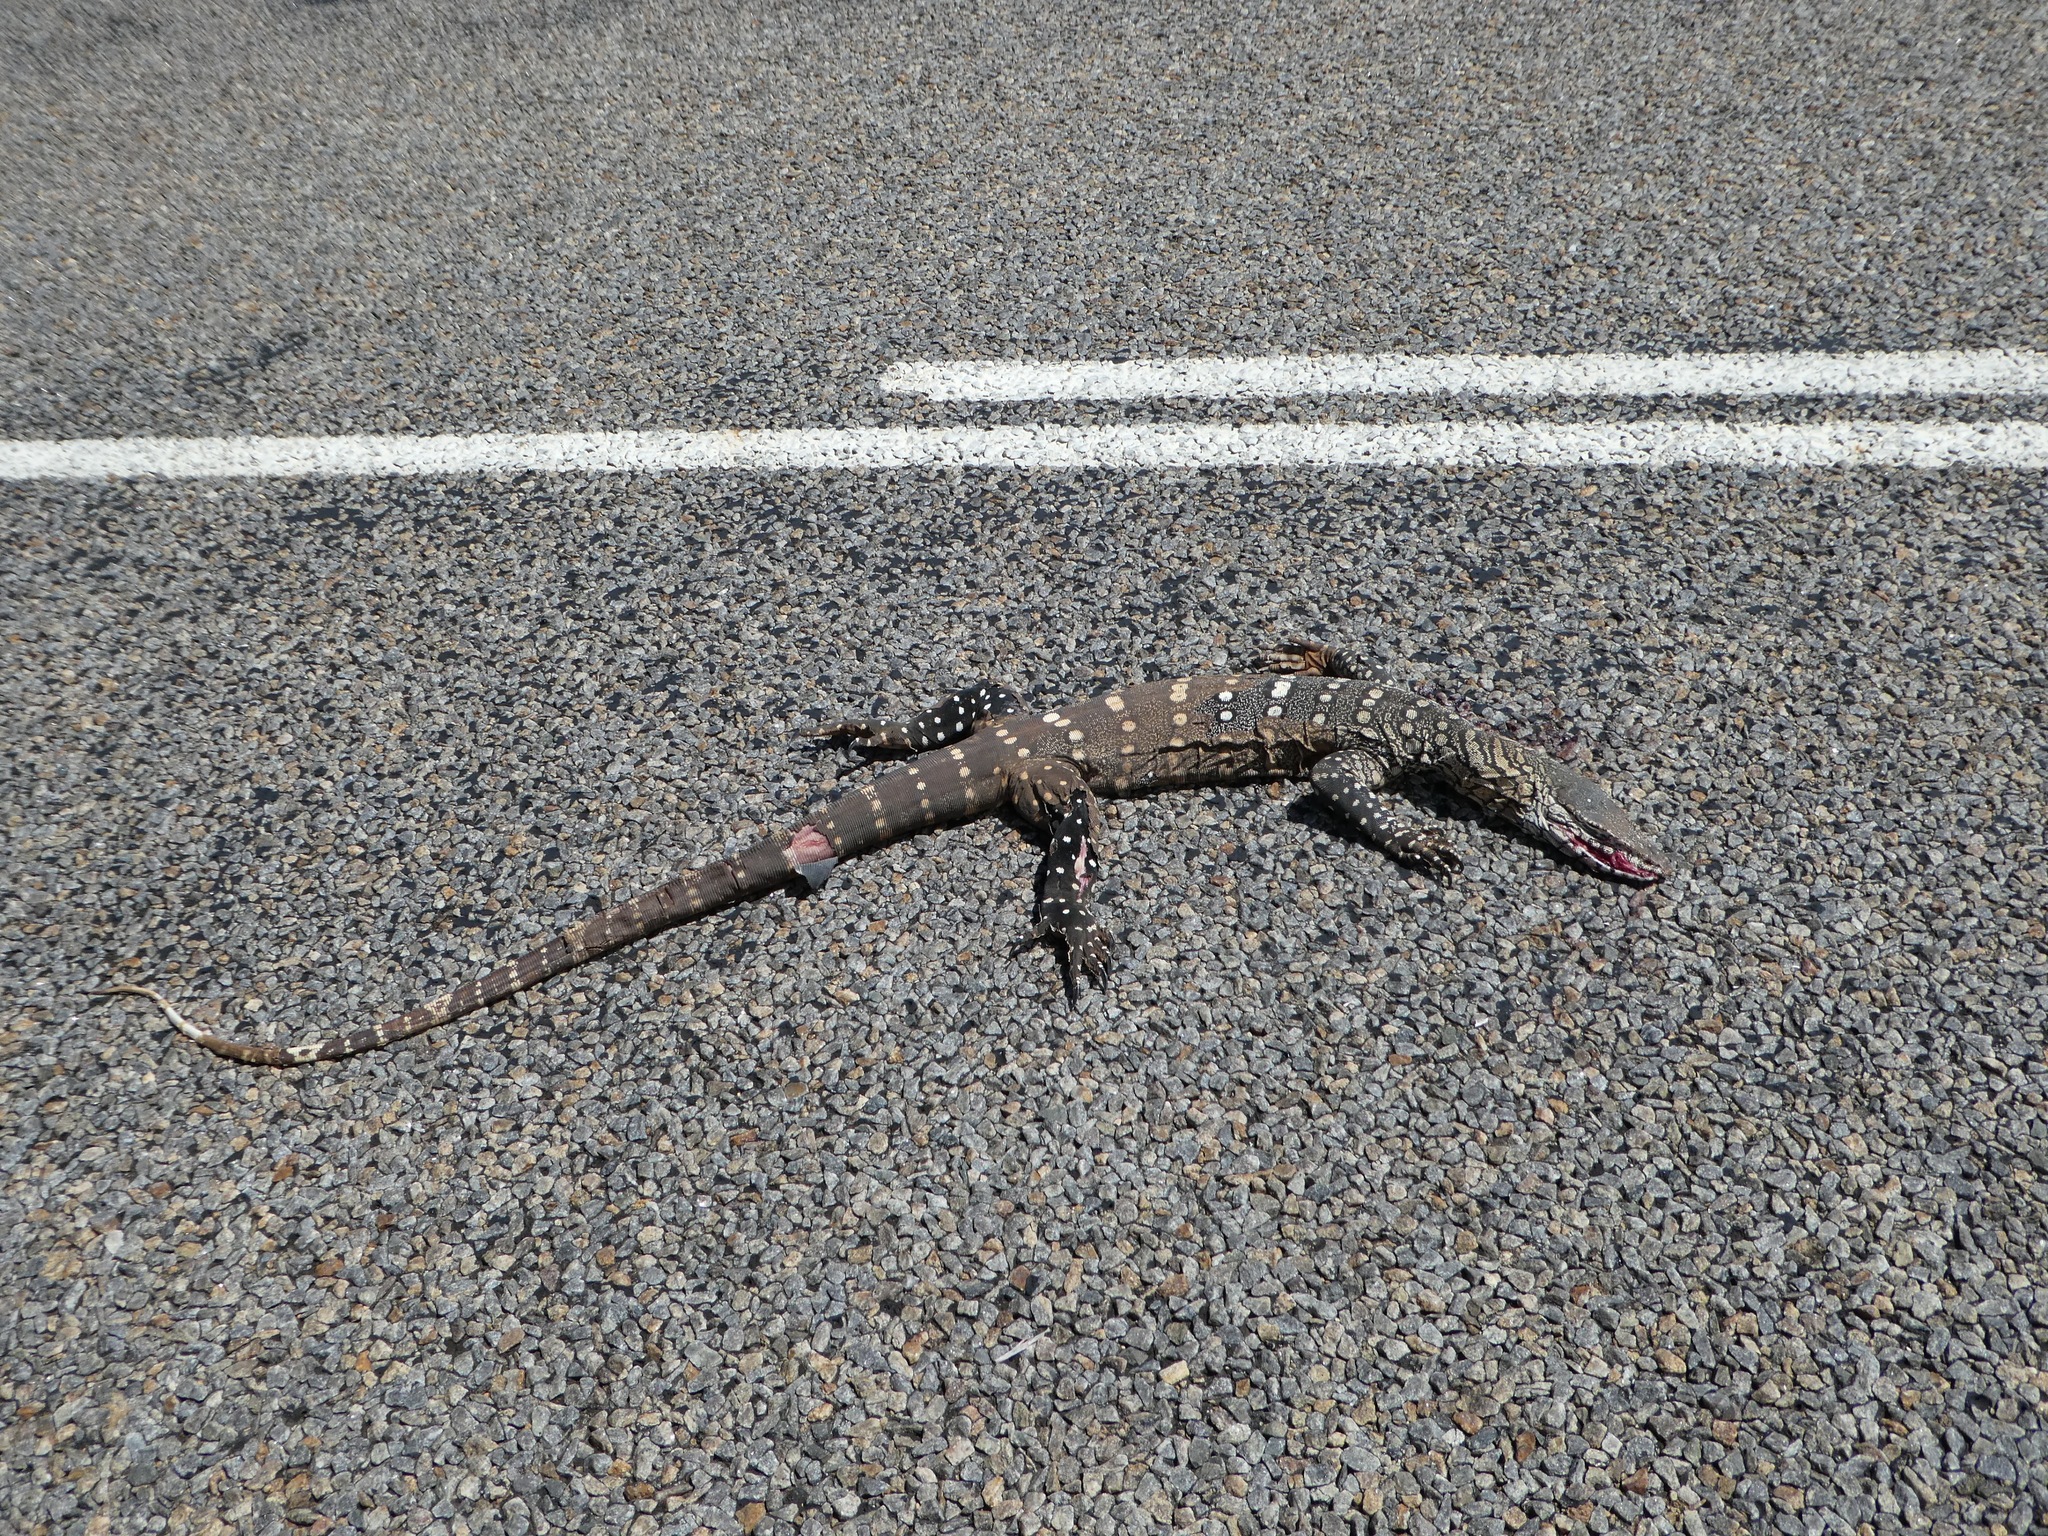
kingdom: Animalia
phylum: Chordata
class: Squamata
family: Varanidae
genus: Varanus
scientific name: Varanus giganteus
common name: Perentie
